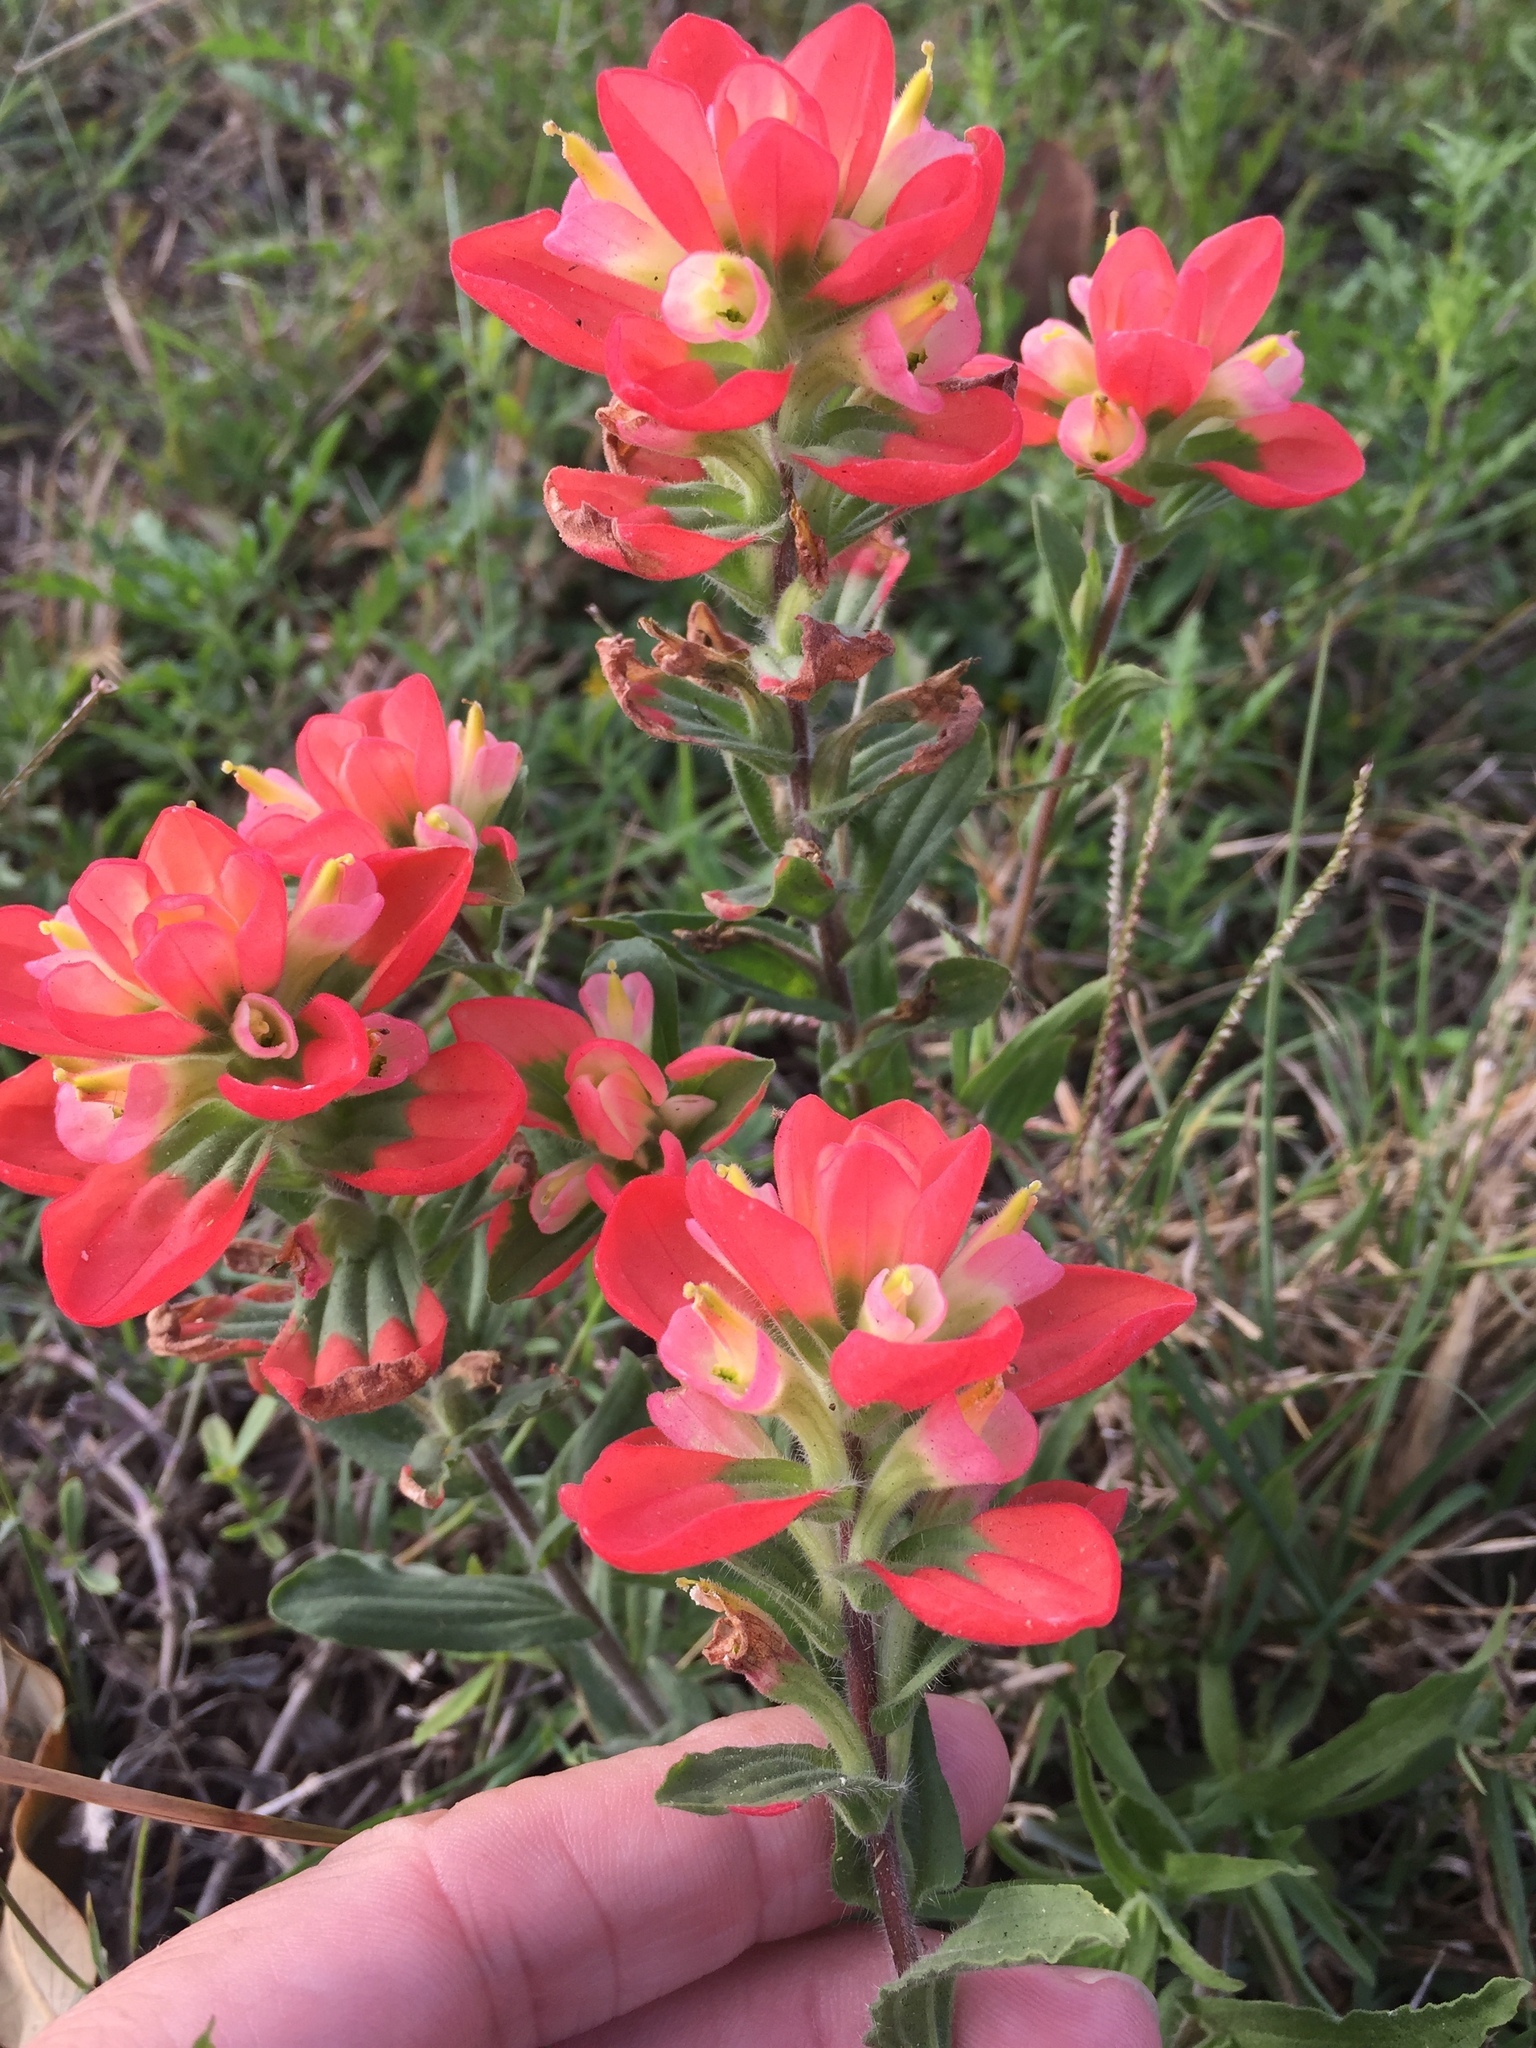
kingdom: Plantae
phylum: Tracheophyta
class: Magnoliopsida
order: Lamiales
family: Orobanchaceae
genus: Castilleja
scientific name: Castilleja indivisa
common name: Texas paintbrush
